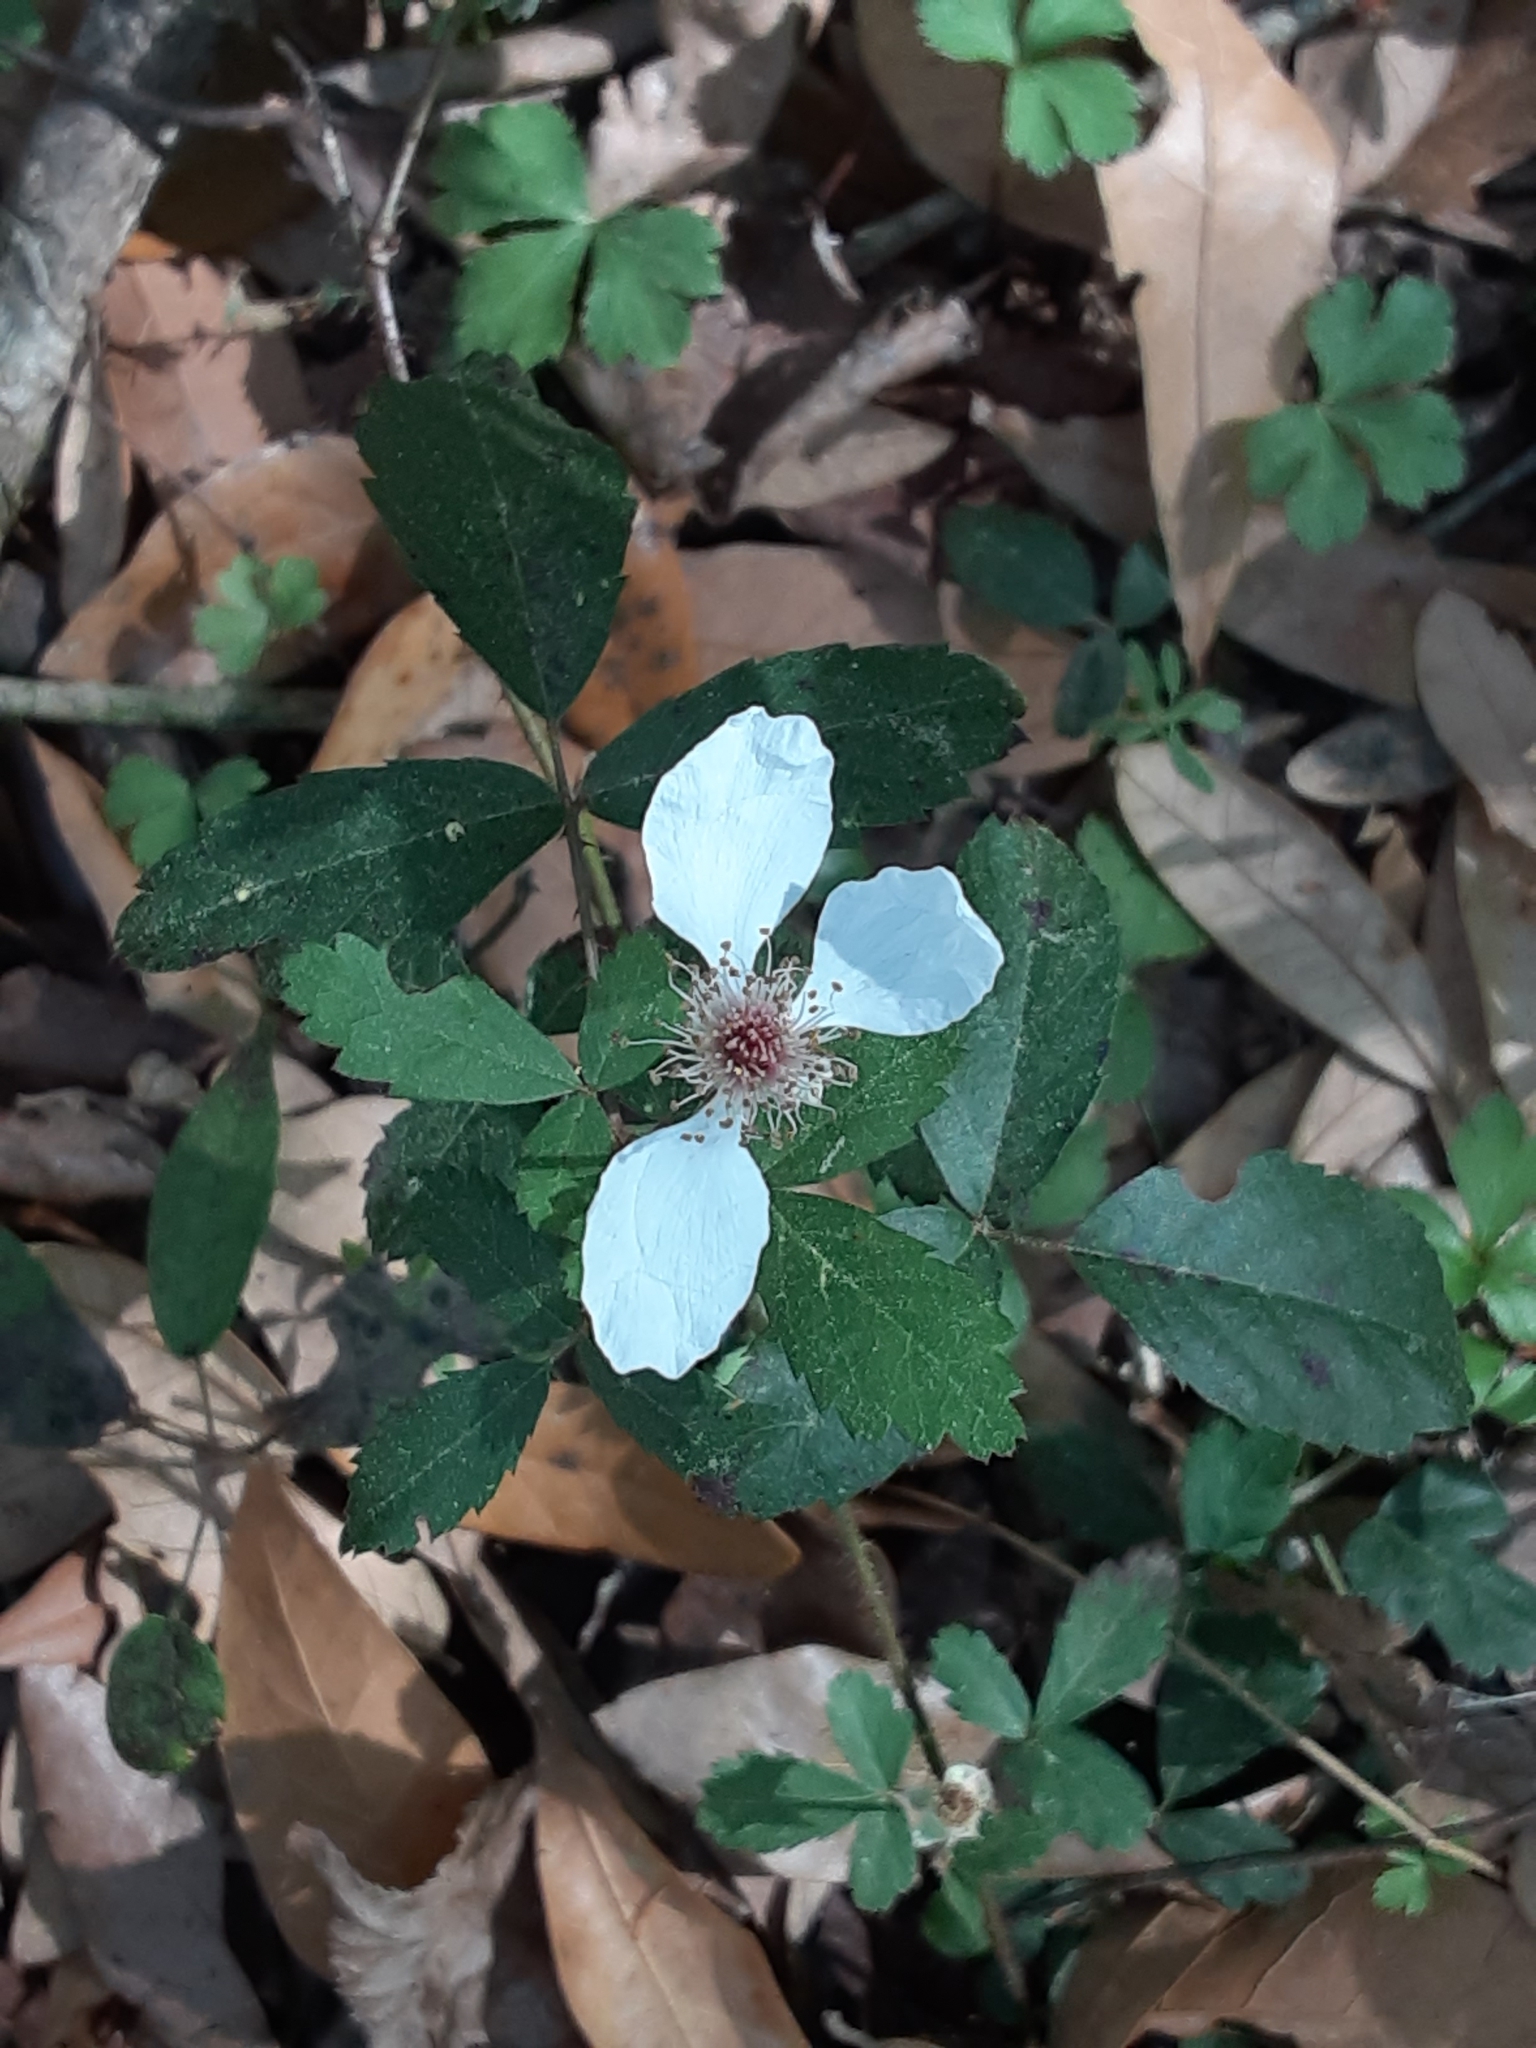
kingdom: Plantae
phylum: Tracheophyta
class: Magnoliopsida
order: Rosales
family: Rosaceae
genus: Rubus
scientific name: Rubus trivialis
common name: Southern dewberry
